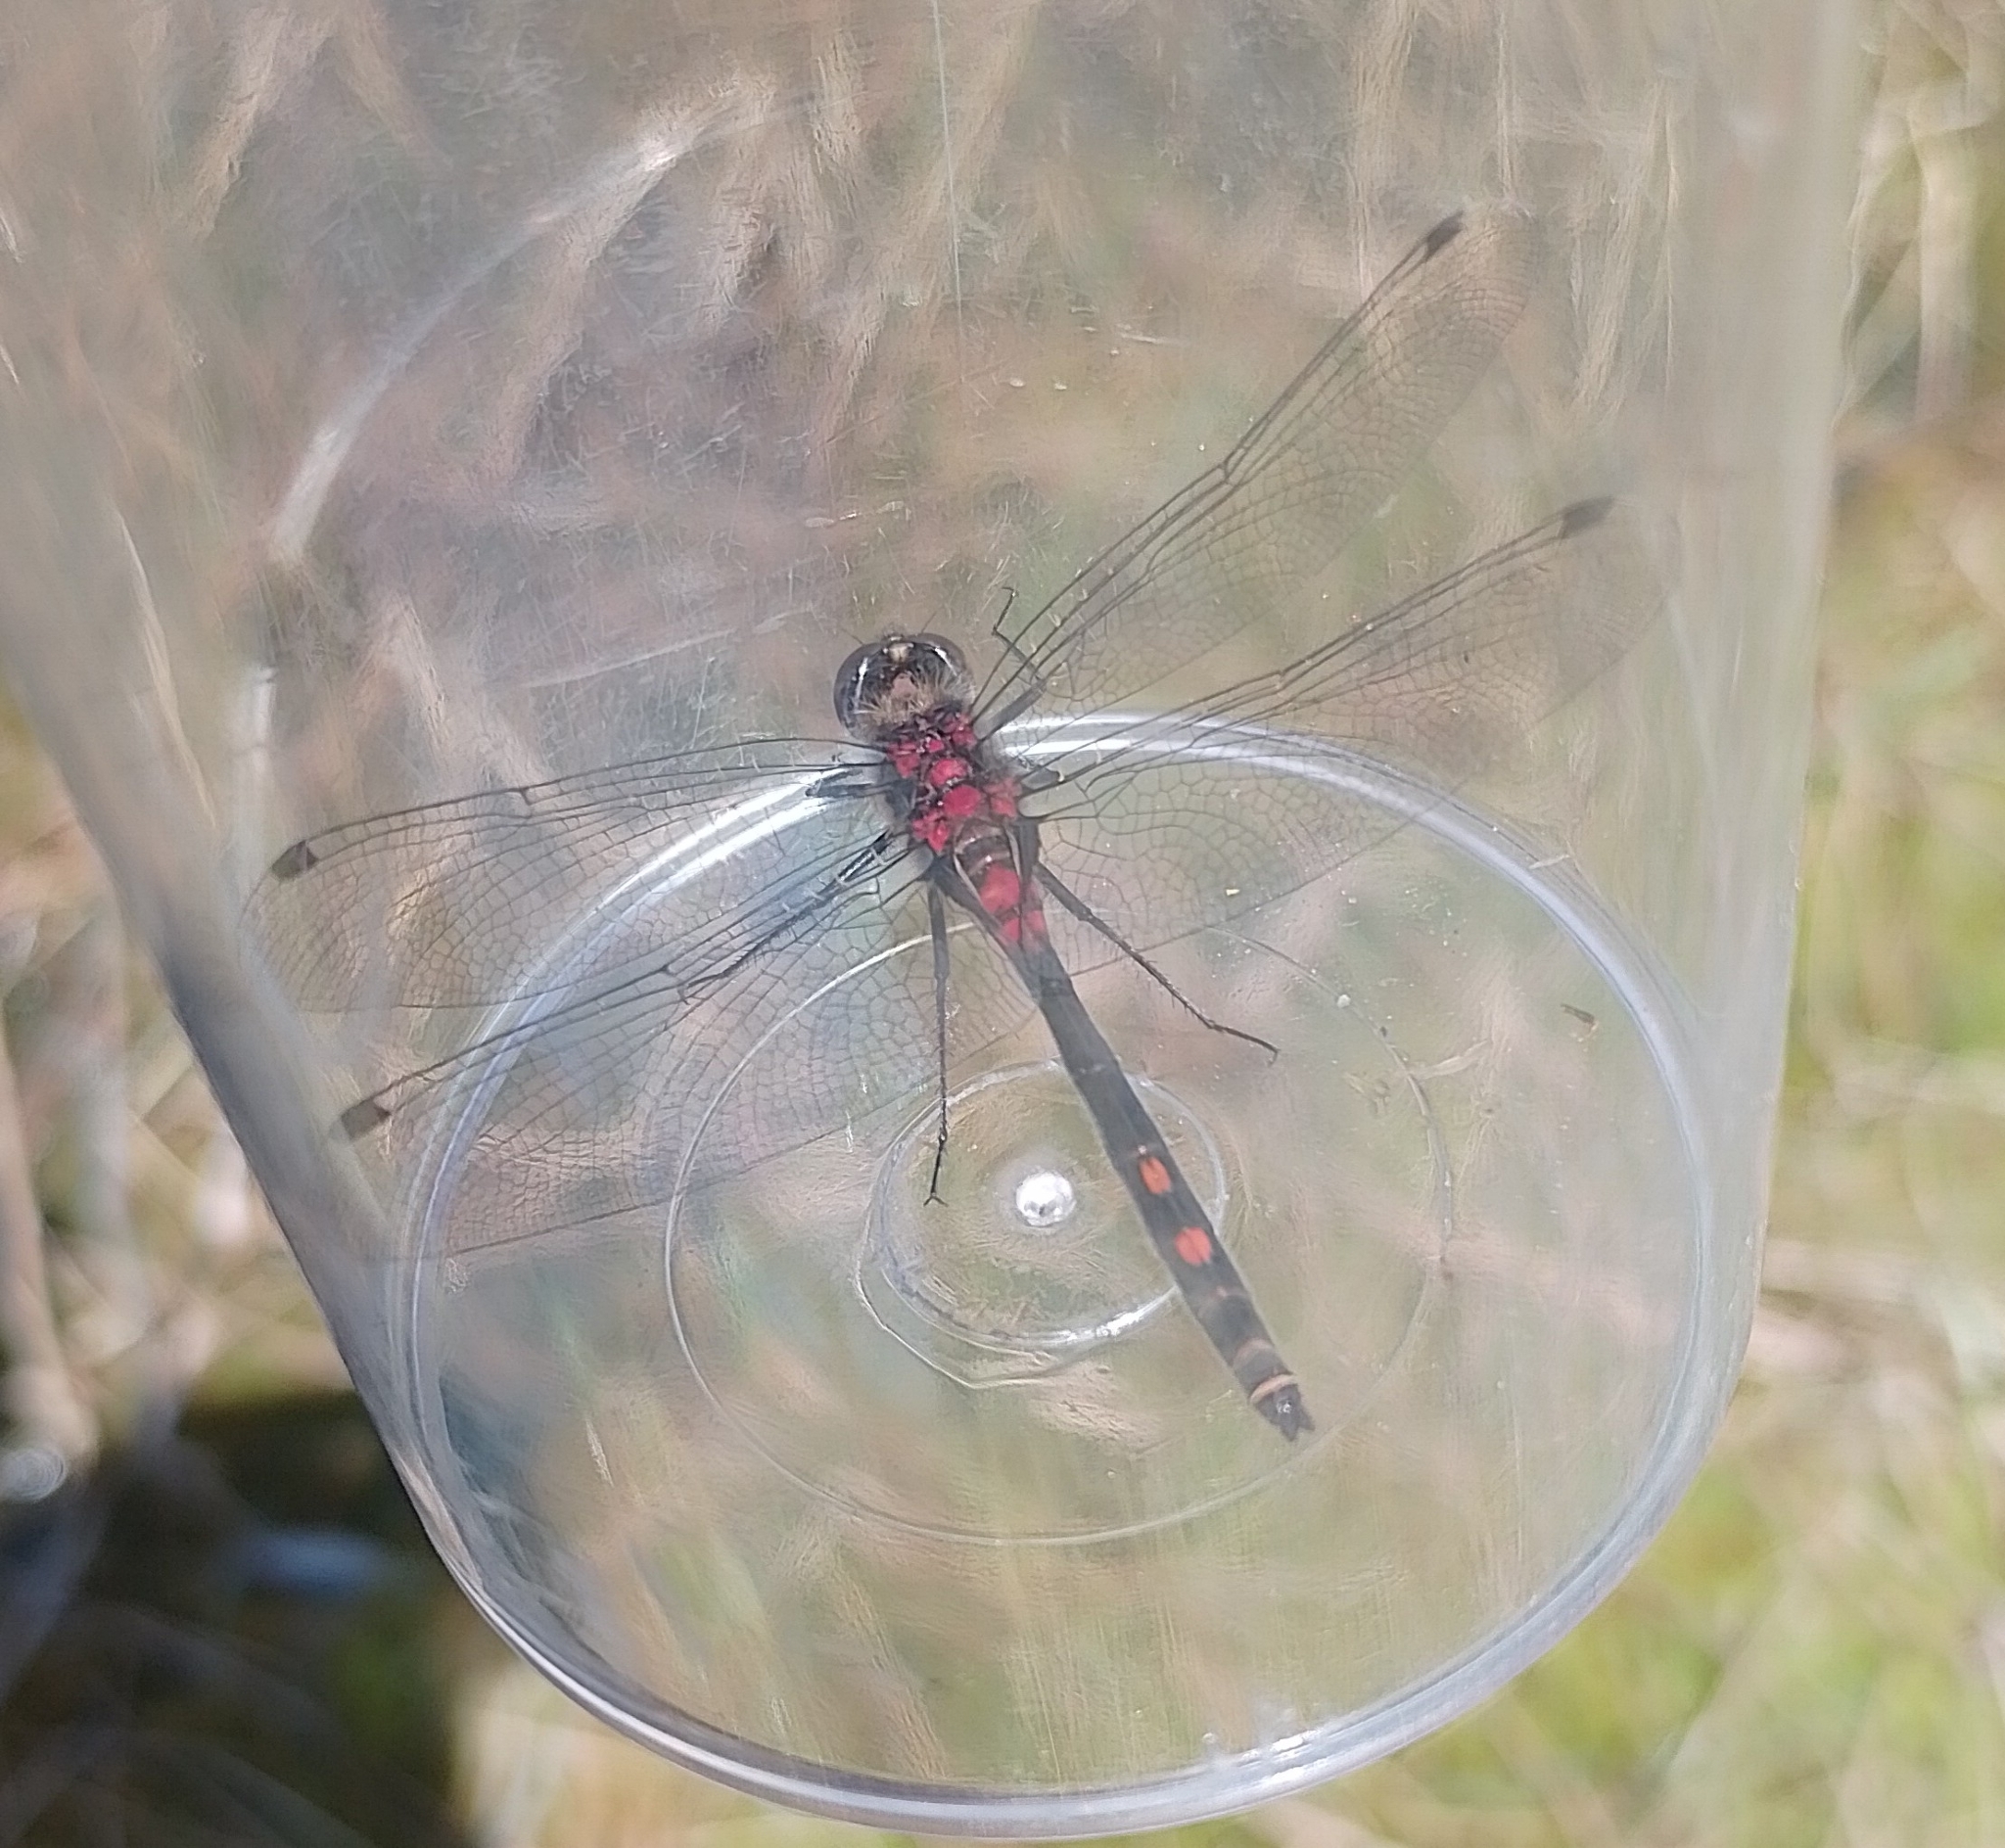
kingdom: Animalia
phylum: Arthropoda
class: Insecta
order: Odonata
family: Libellulidae
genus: Leucorrhinia
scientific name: Leucorrhinia dubia
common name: White-faced darter
